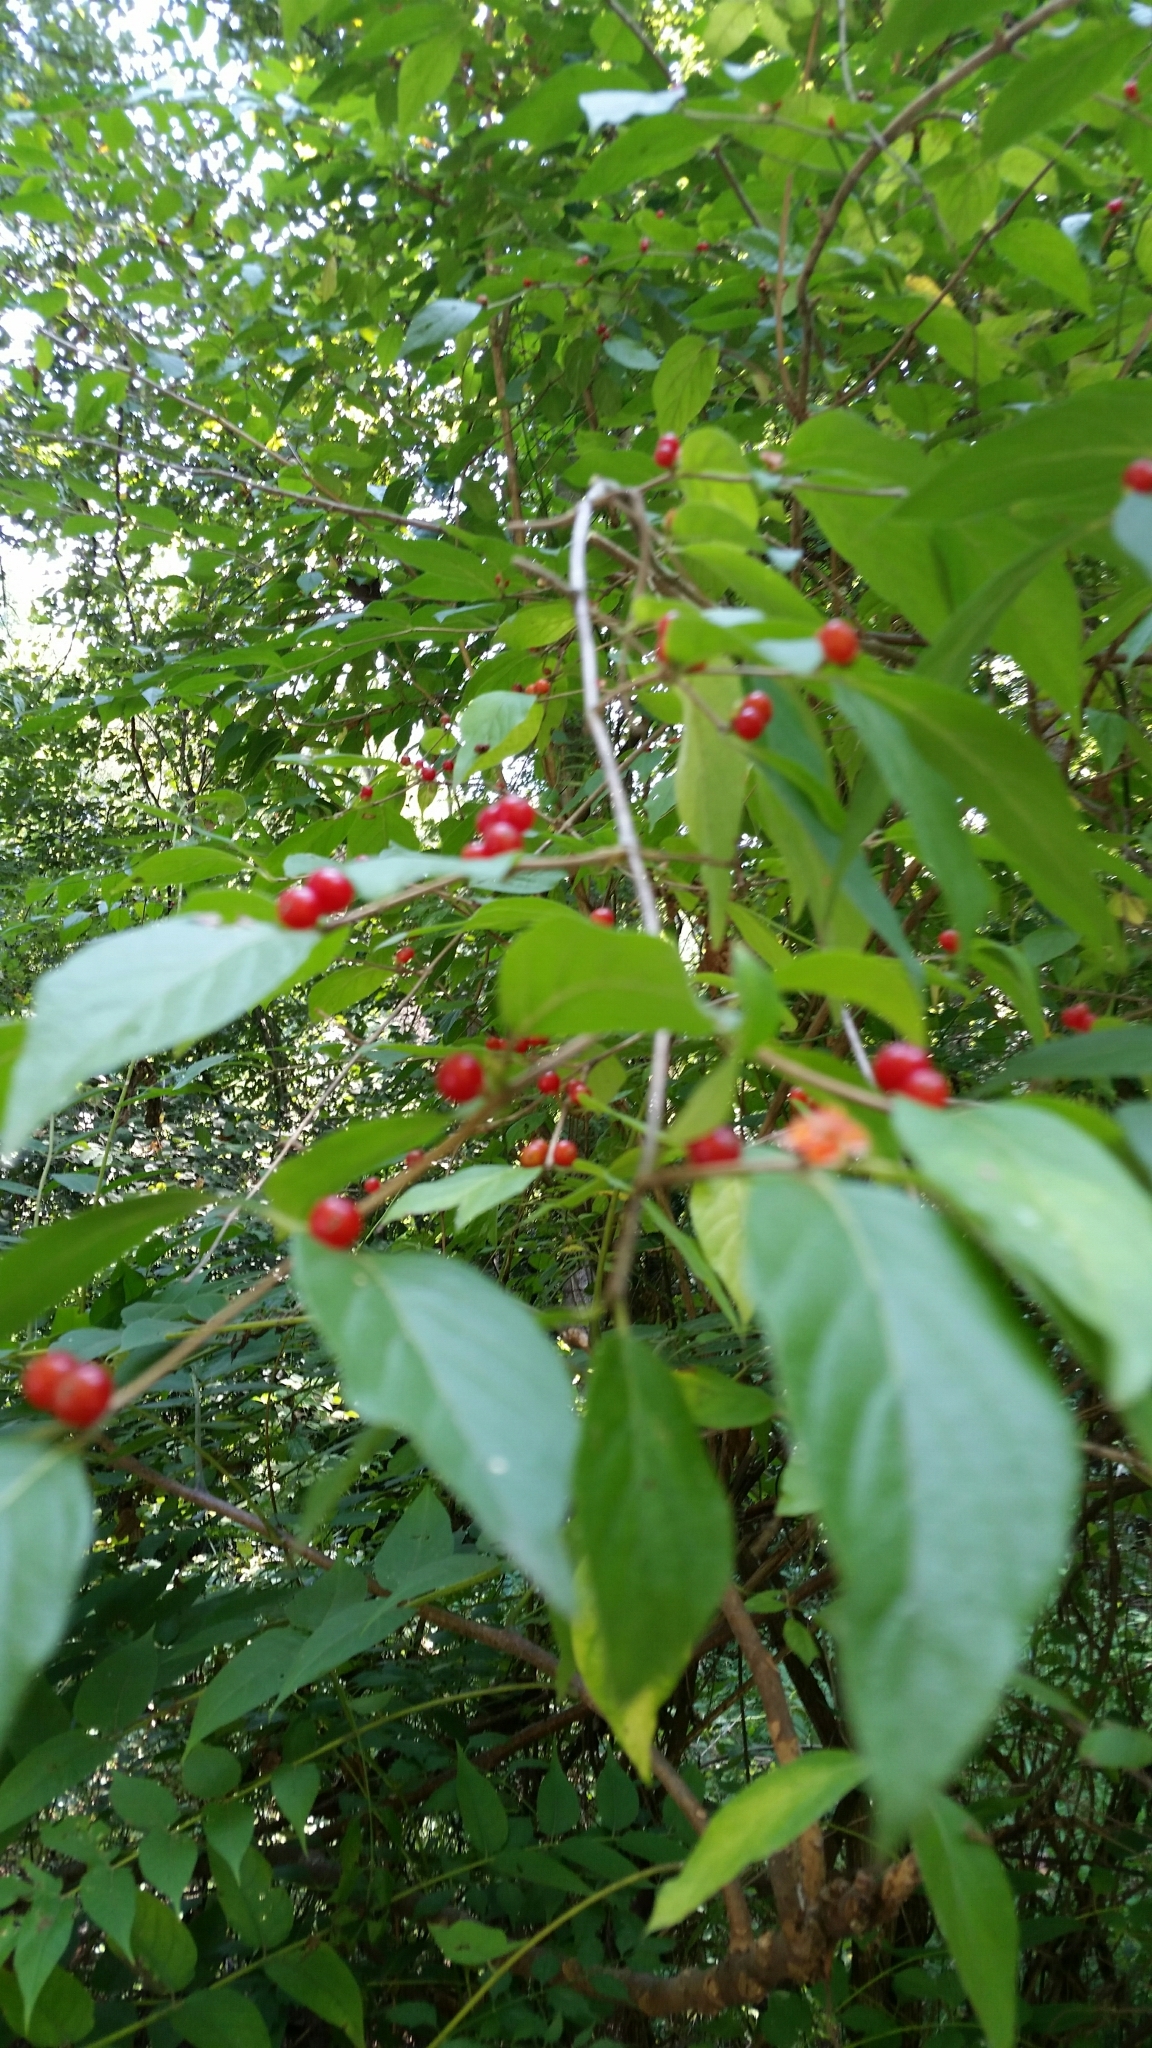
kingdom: Plantae
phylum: Tracheophyta
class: Magnoliopsida
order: Dipsacales
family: Caprifoliaceae
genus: Lonicera
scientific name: Lonicera maackii
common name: Amur honeysuckle
